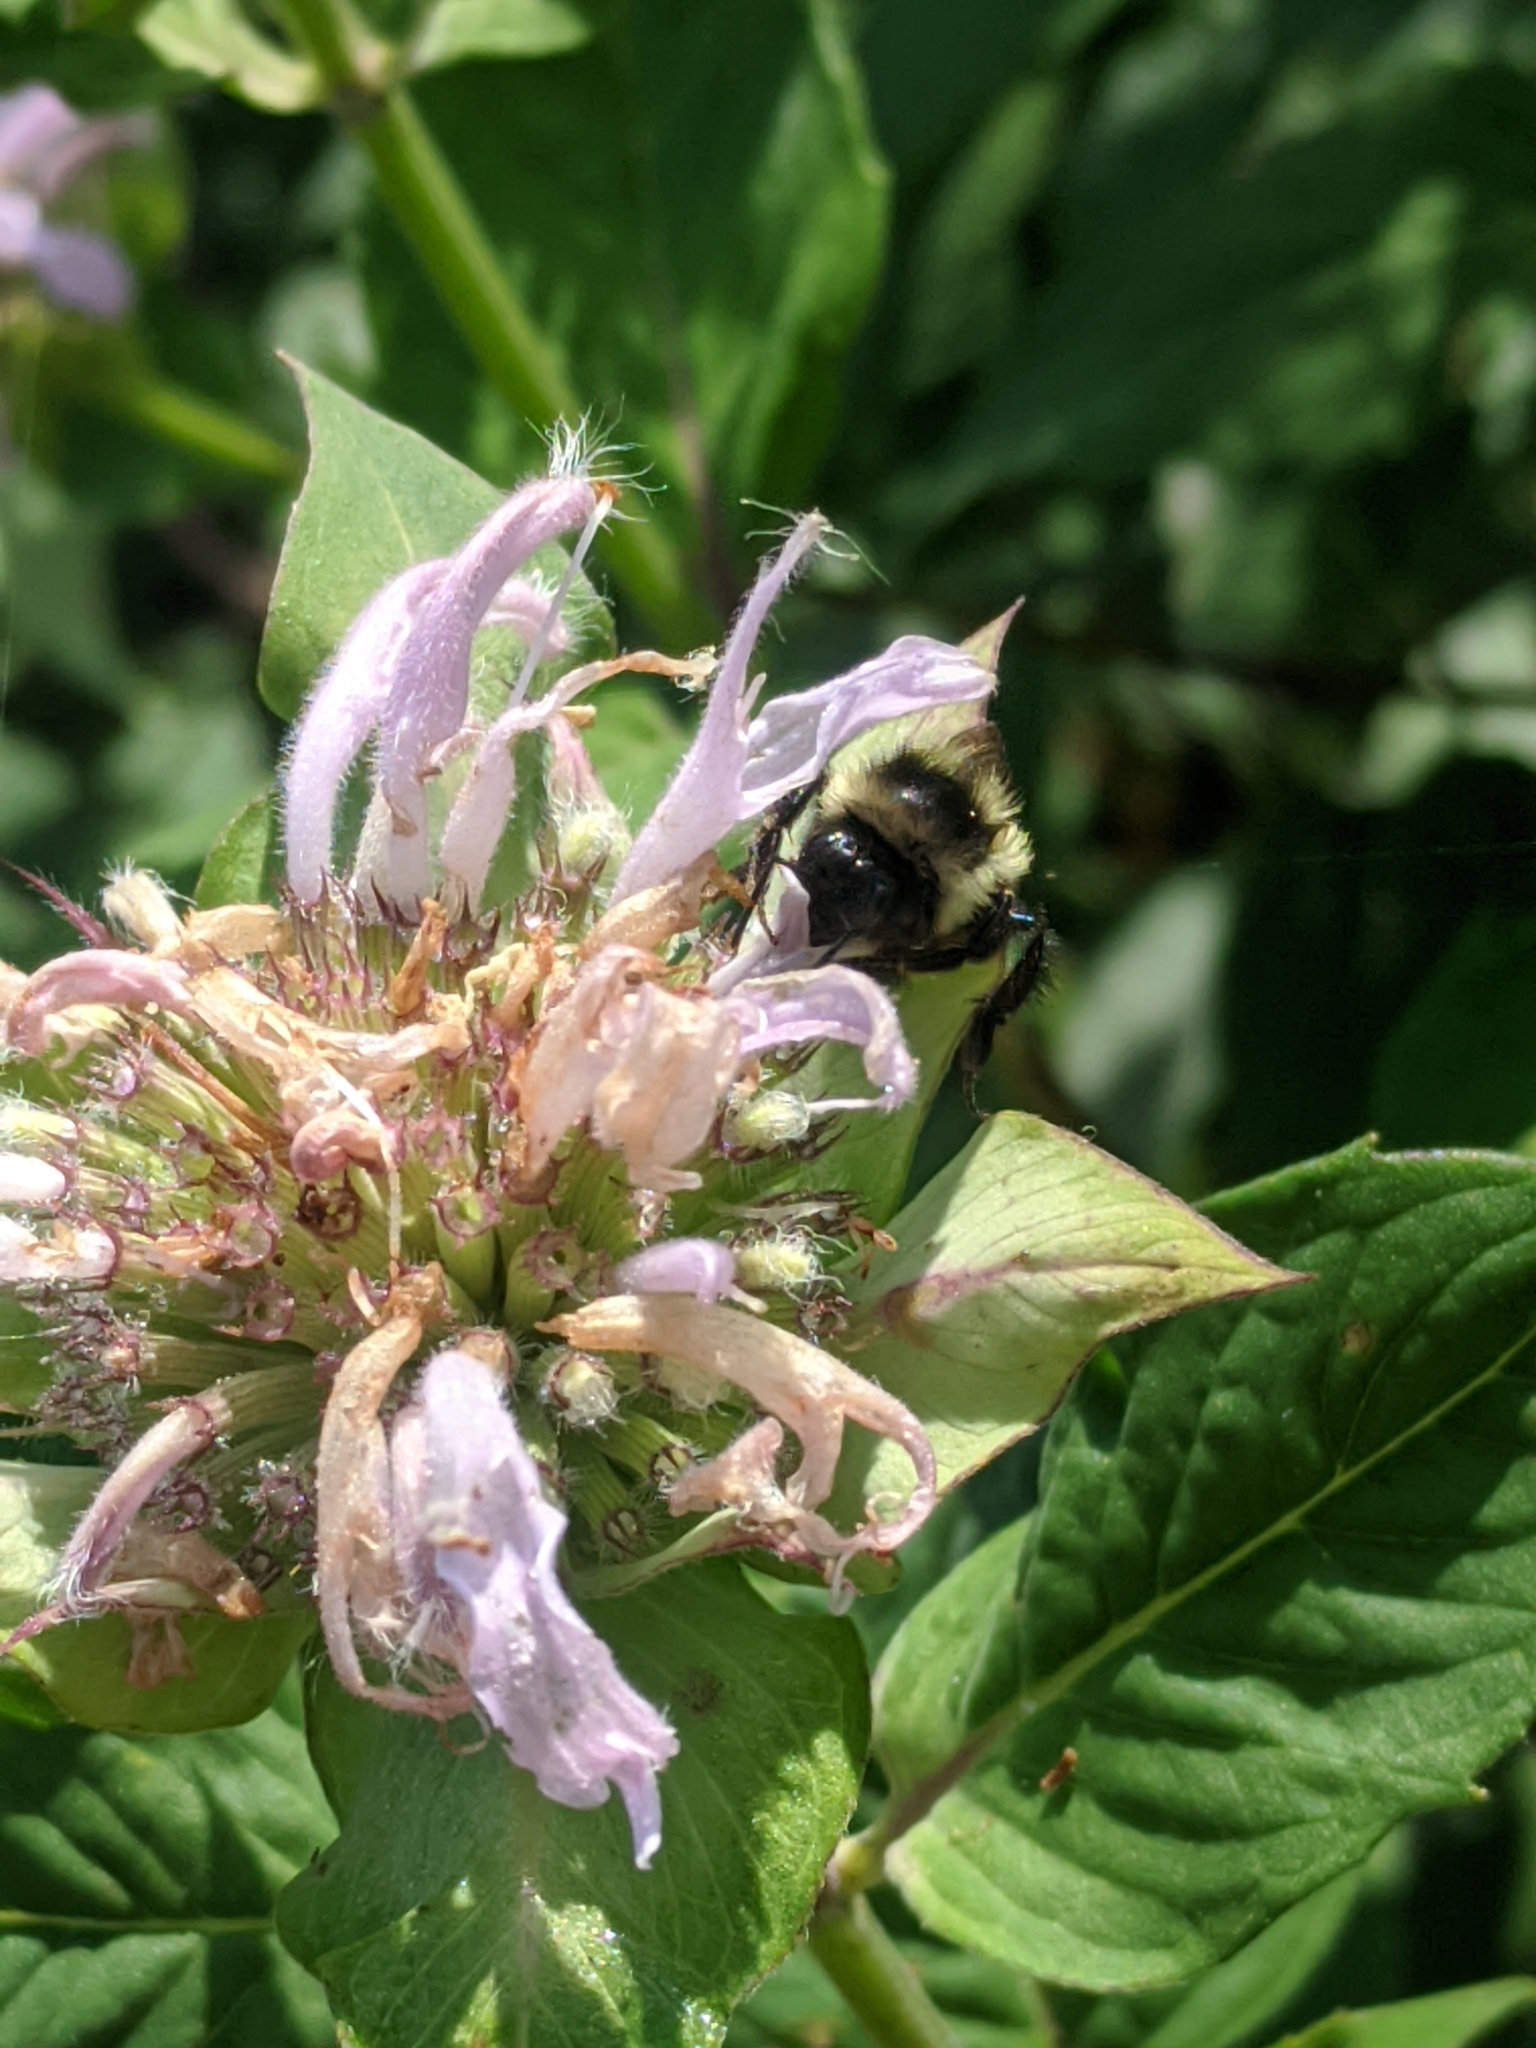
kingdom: Animalia
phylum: Arthropoda
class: Insecta
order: Hymenoptera
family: Apidae
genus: Bombus
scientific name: Bombus ternarius
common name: Tri-colored bumble bee
